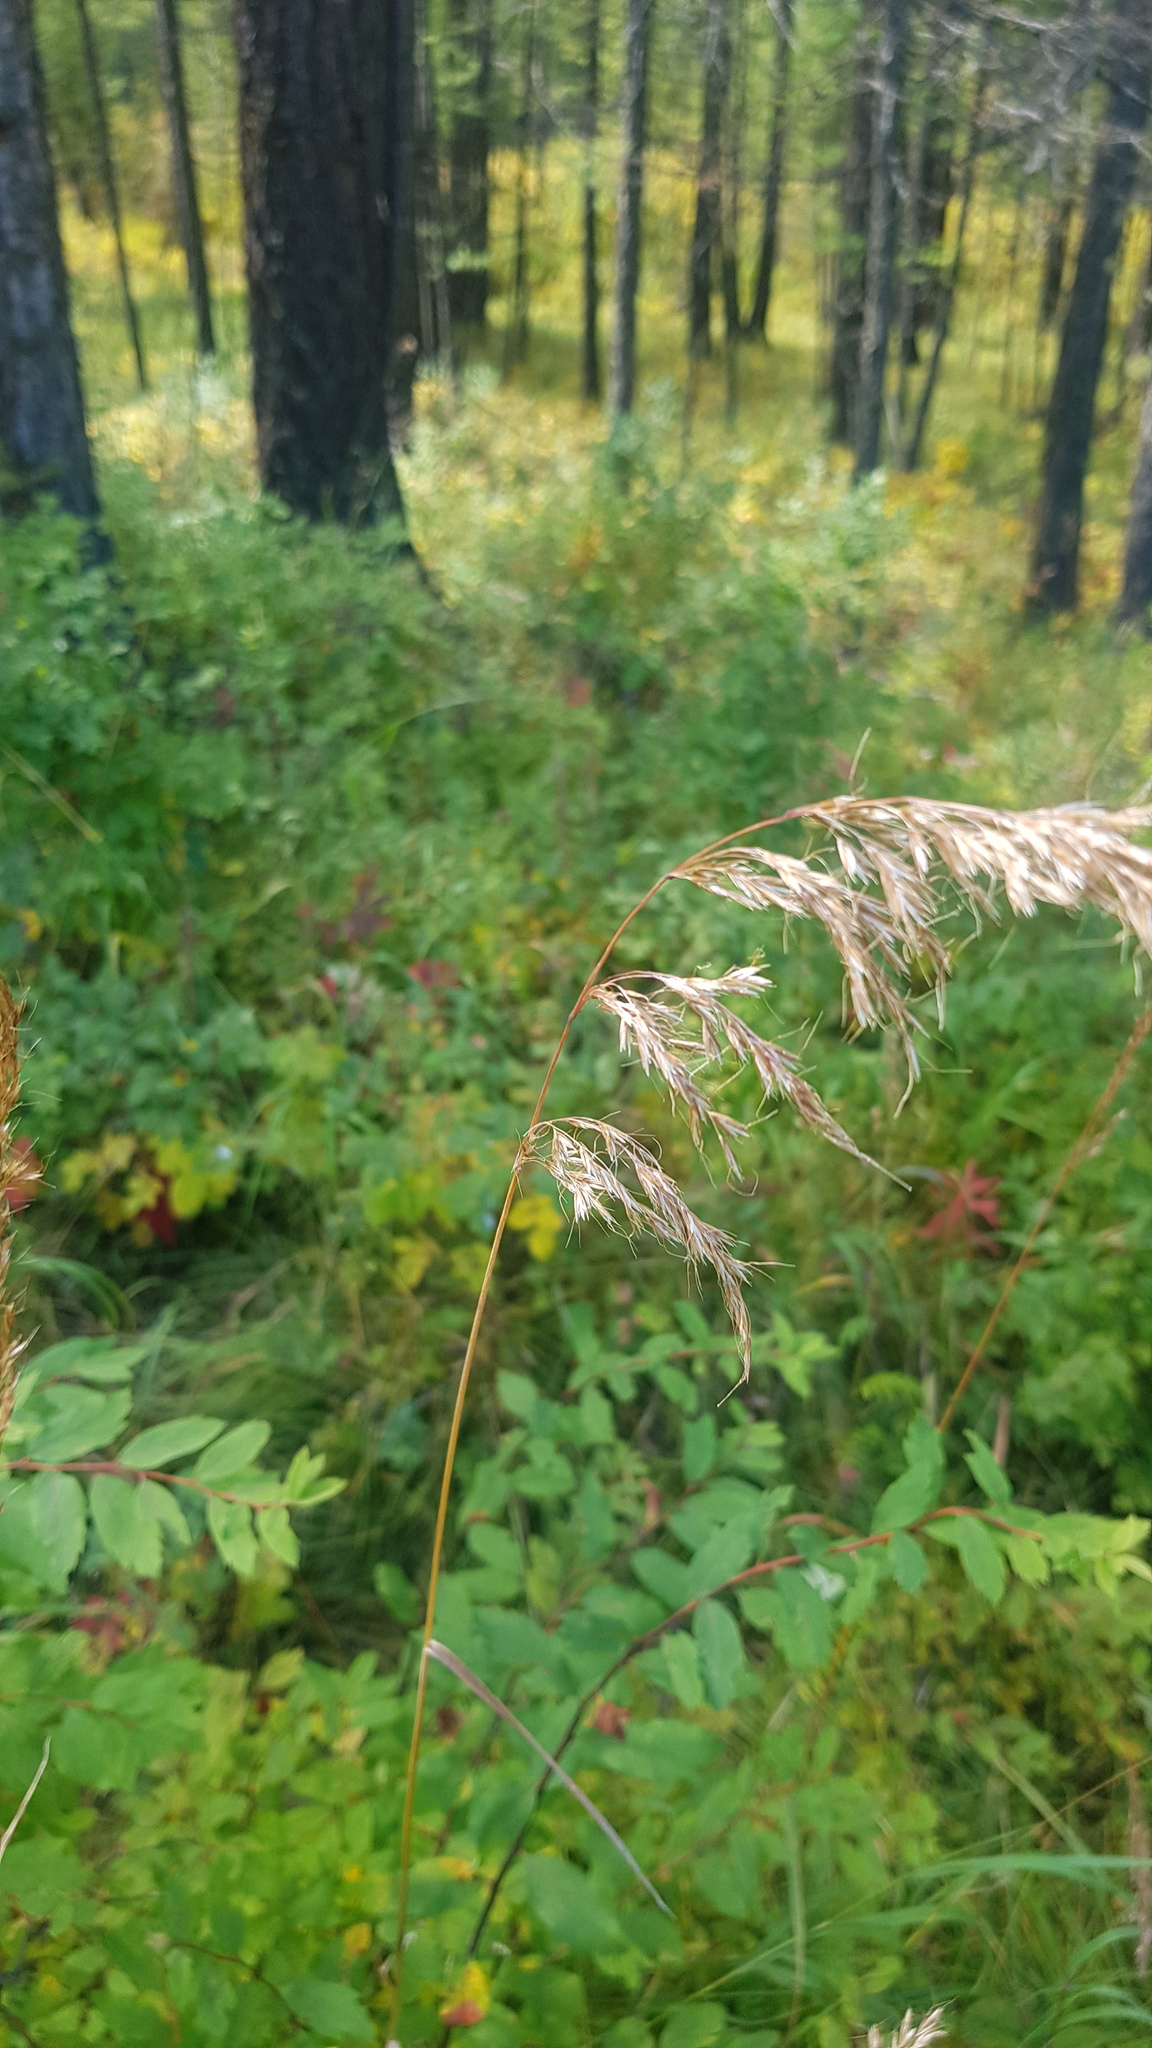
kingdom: Plantae
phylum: Tracheophyta
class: Liliopsida
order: Poales
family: Poaceae
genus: Achnatherum
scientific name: Achnatherum sibiricum
